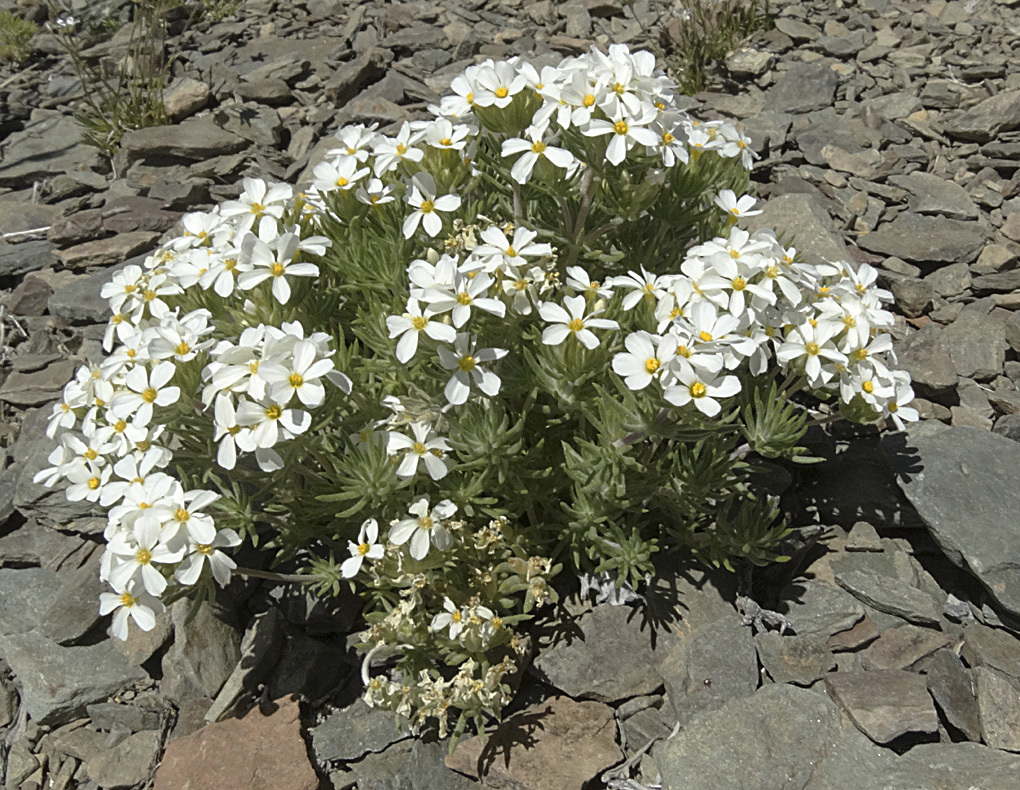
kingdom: Plantae
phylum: Tracheophyta
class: Magnoliopsida
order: Ericales
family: Polemoniaceae
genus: Leptosiphon
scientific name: Leptosiphon nuttallii
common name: Nuttall's linanthus
